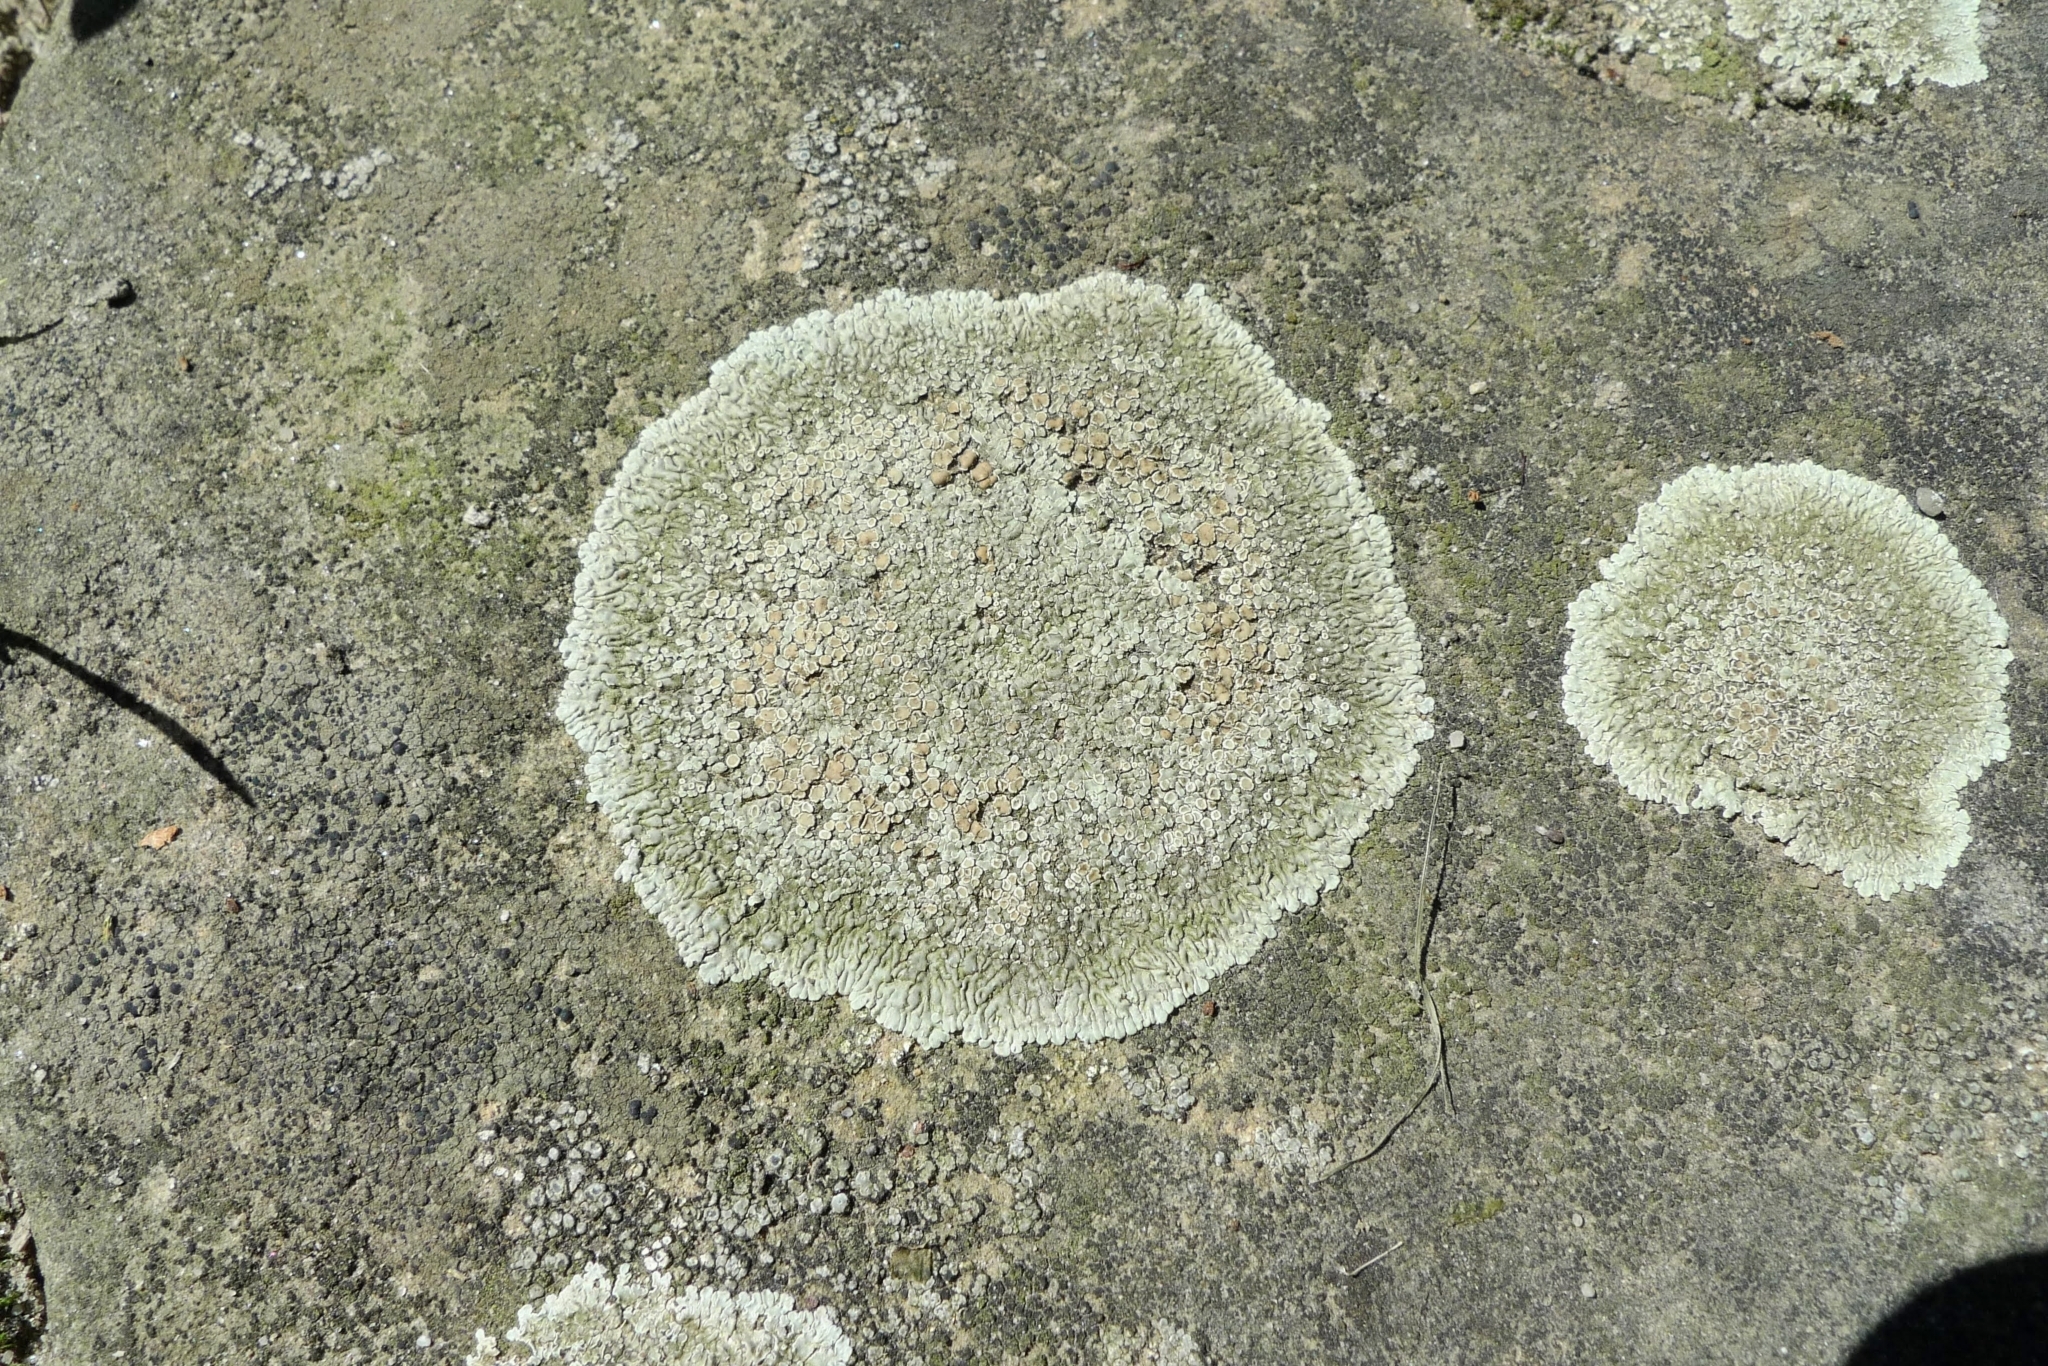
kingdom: Fungi
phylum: Ascomycota
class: Lecanoromycetes
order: Lecanorales
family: Lecanoraceae
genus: Protoparmeliopsis
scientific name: Protoparmeliopsis muralis
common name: Stonewall rim lichen
